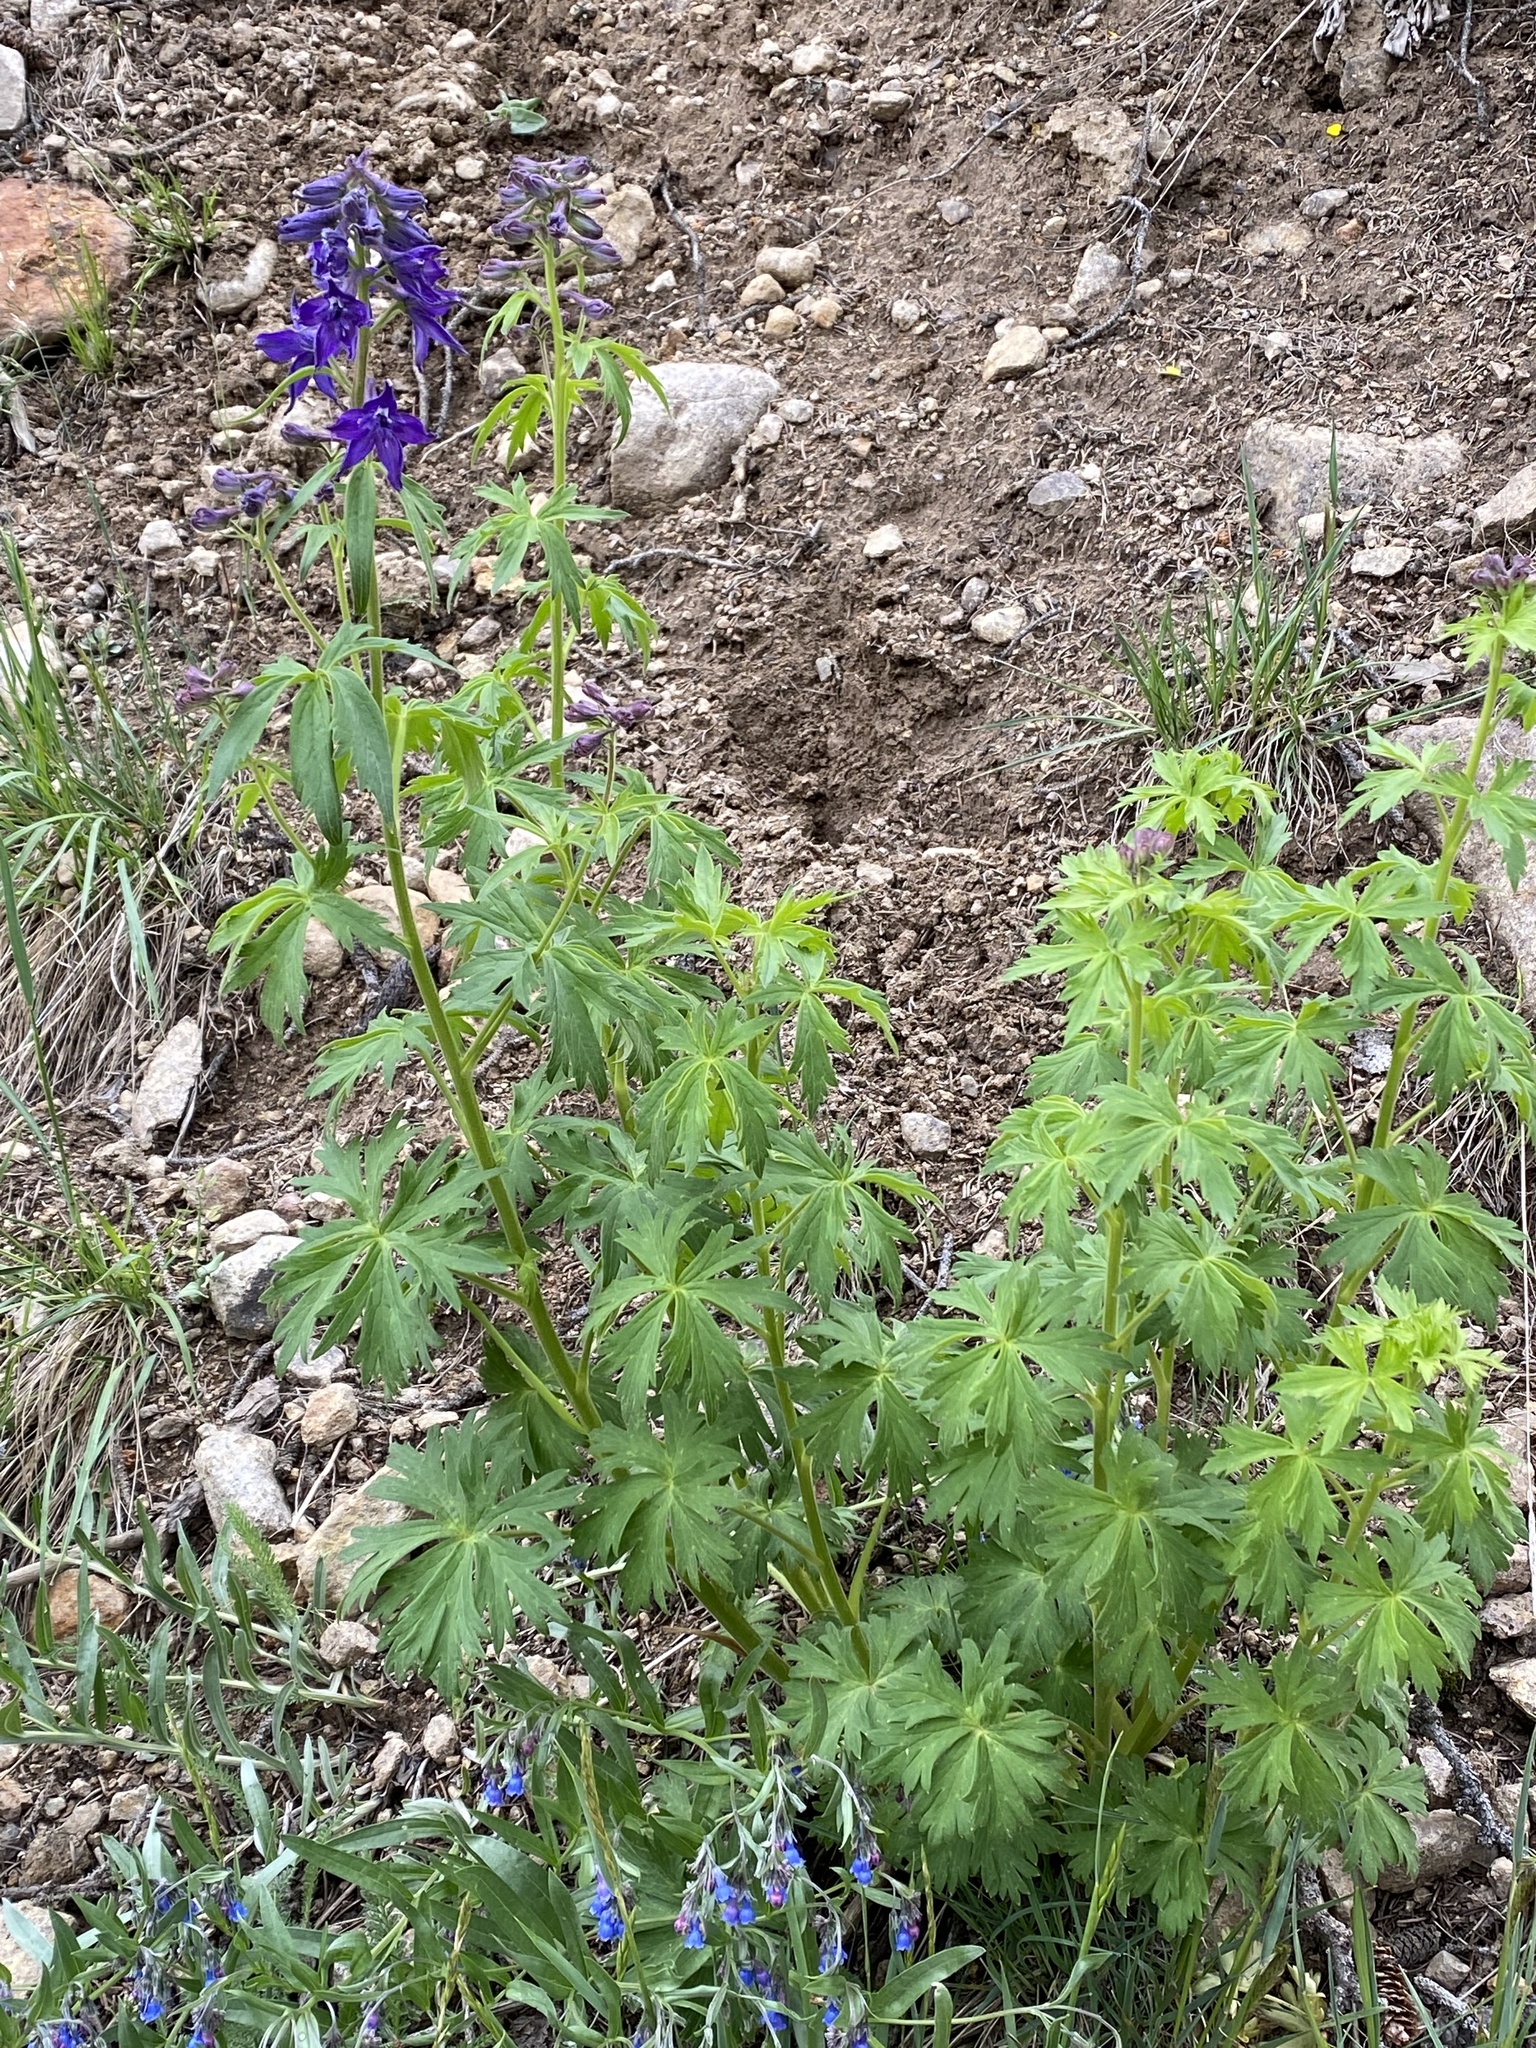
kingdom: Plantae
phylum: Tracheophyta
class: Magnoliopsida
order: Ranunculales
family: Ranunculaceae
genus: Delphinium
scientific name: Delphinium barbeyi
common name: Subalpine larkspur
